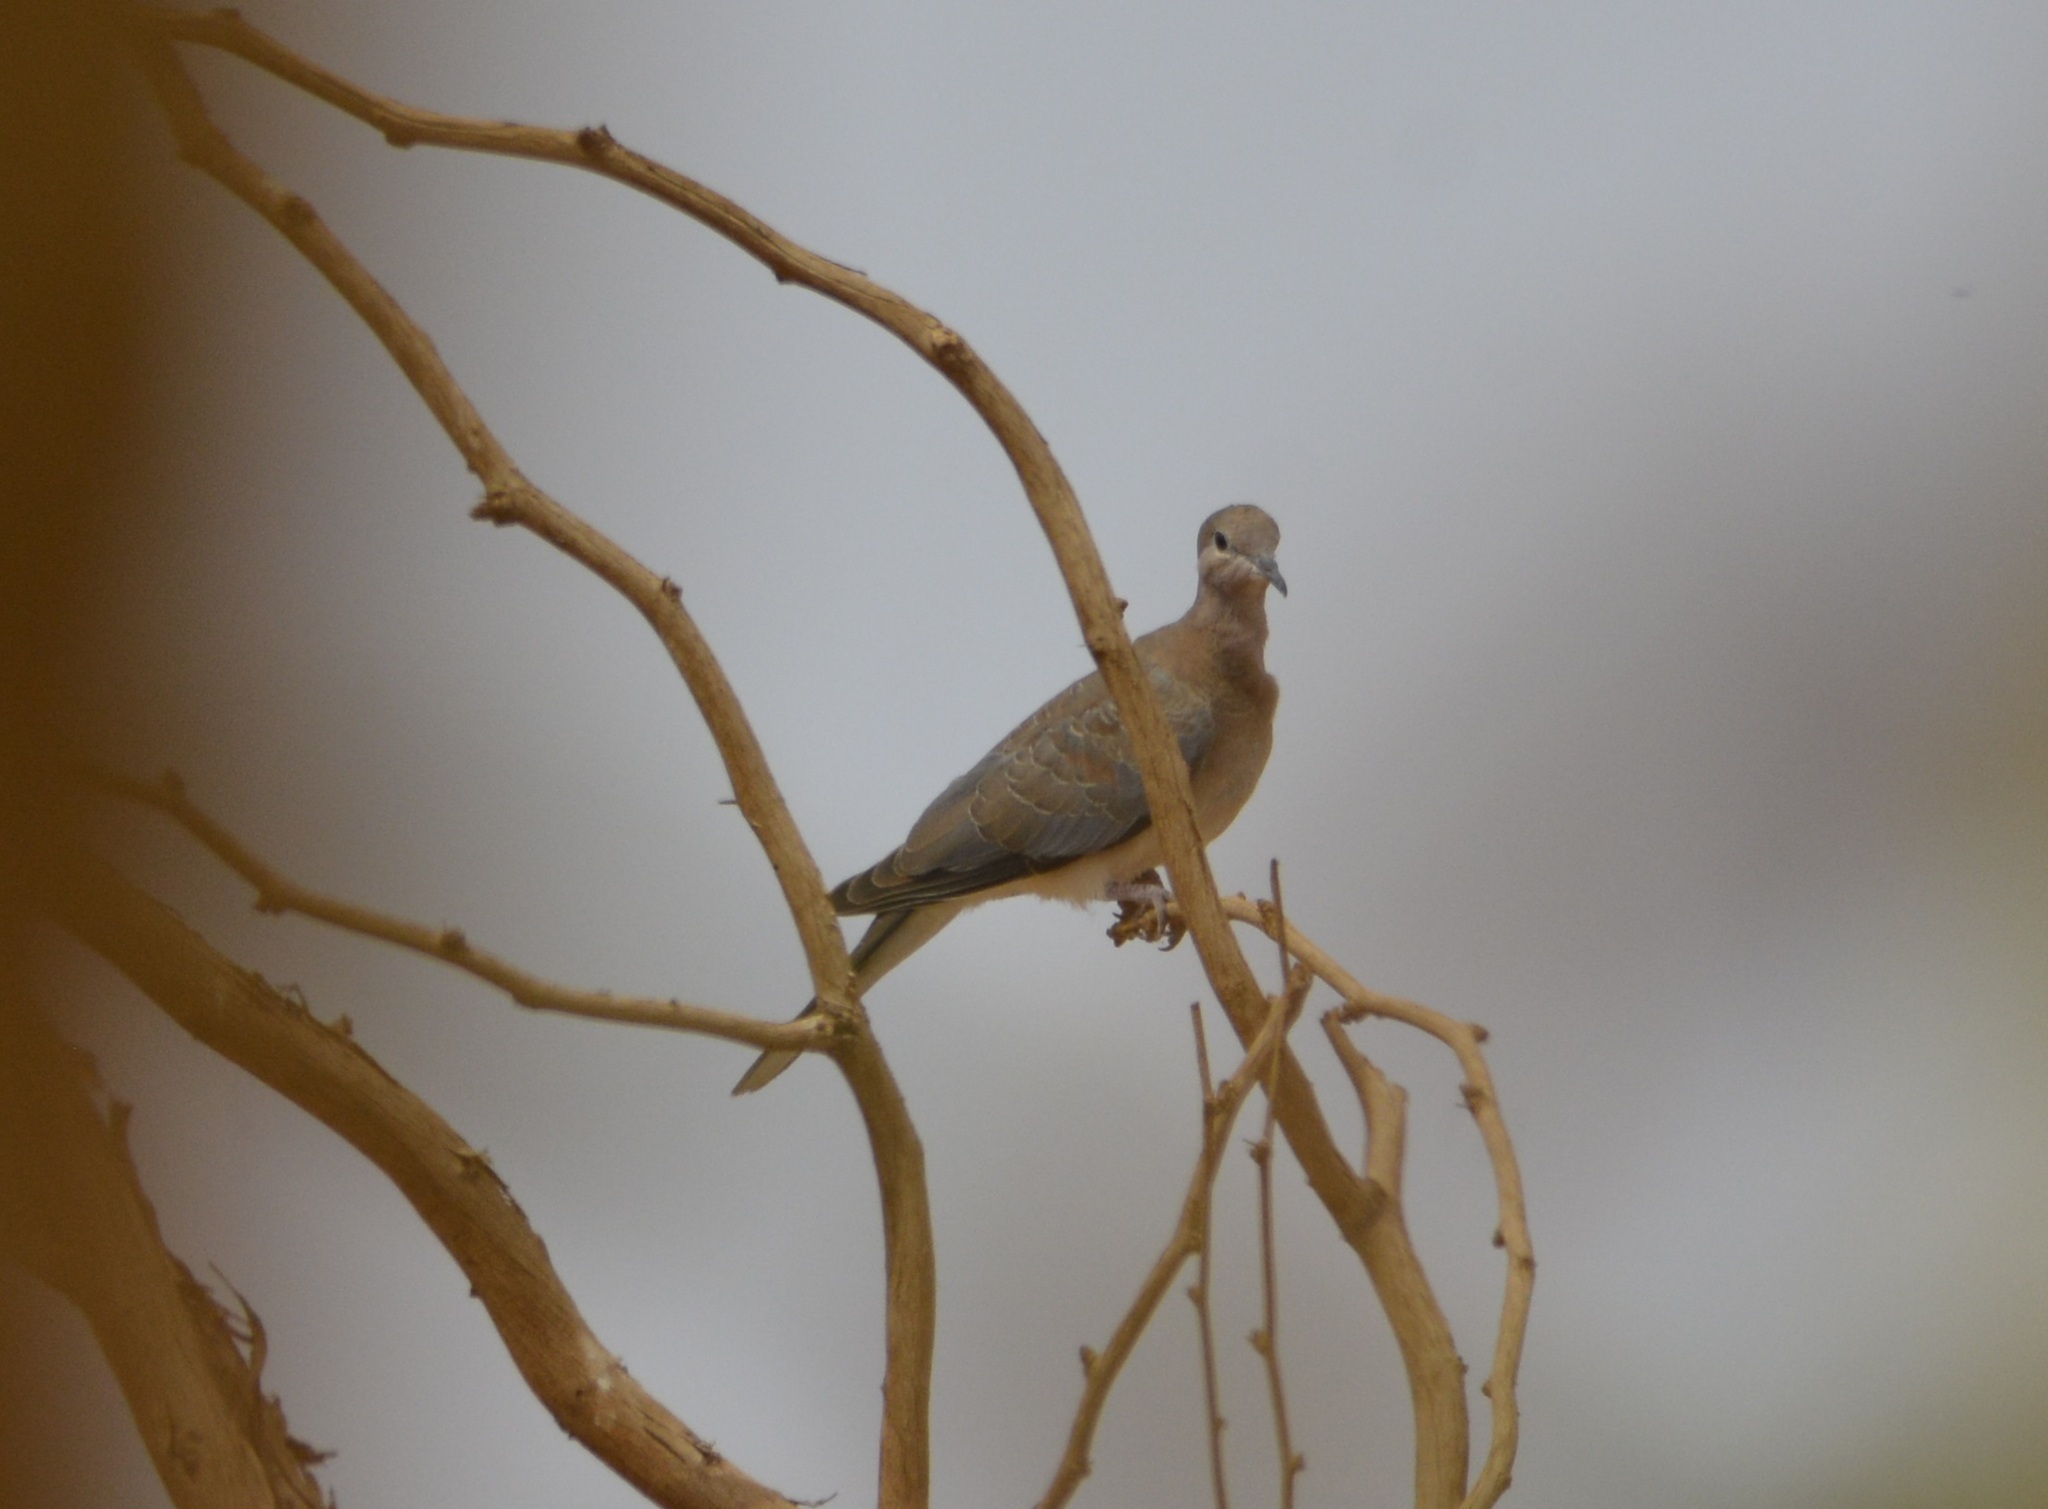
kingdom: Animalia
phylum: Chordata
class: Aves
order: Columbiformes
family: Columbidae
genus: Spilopelia
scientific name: Spilopelia senegalensis
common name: Laughing dove
